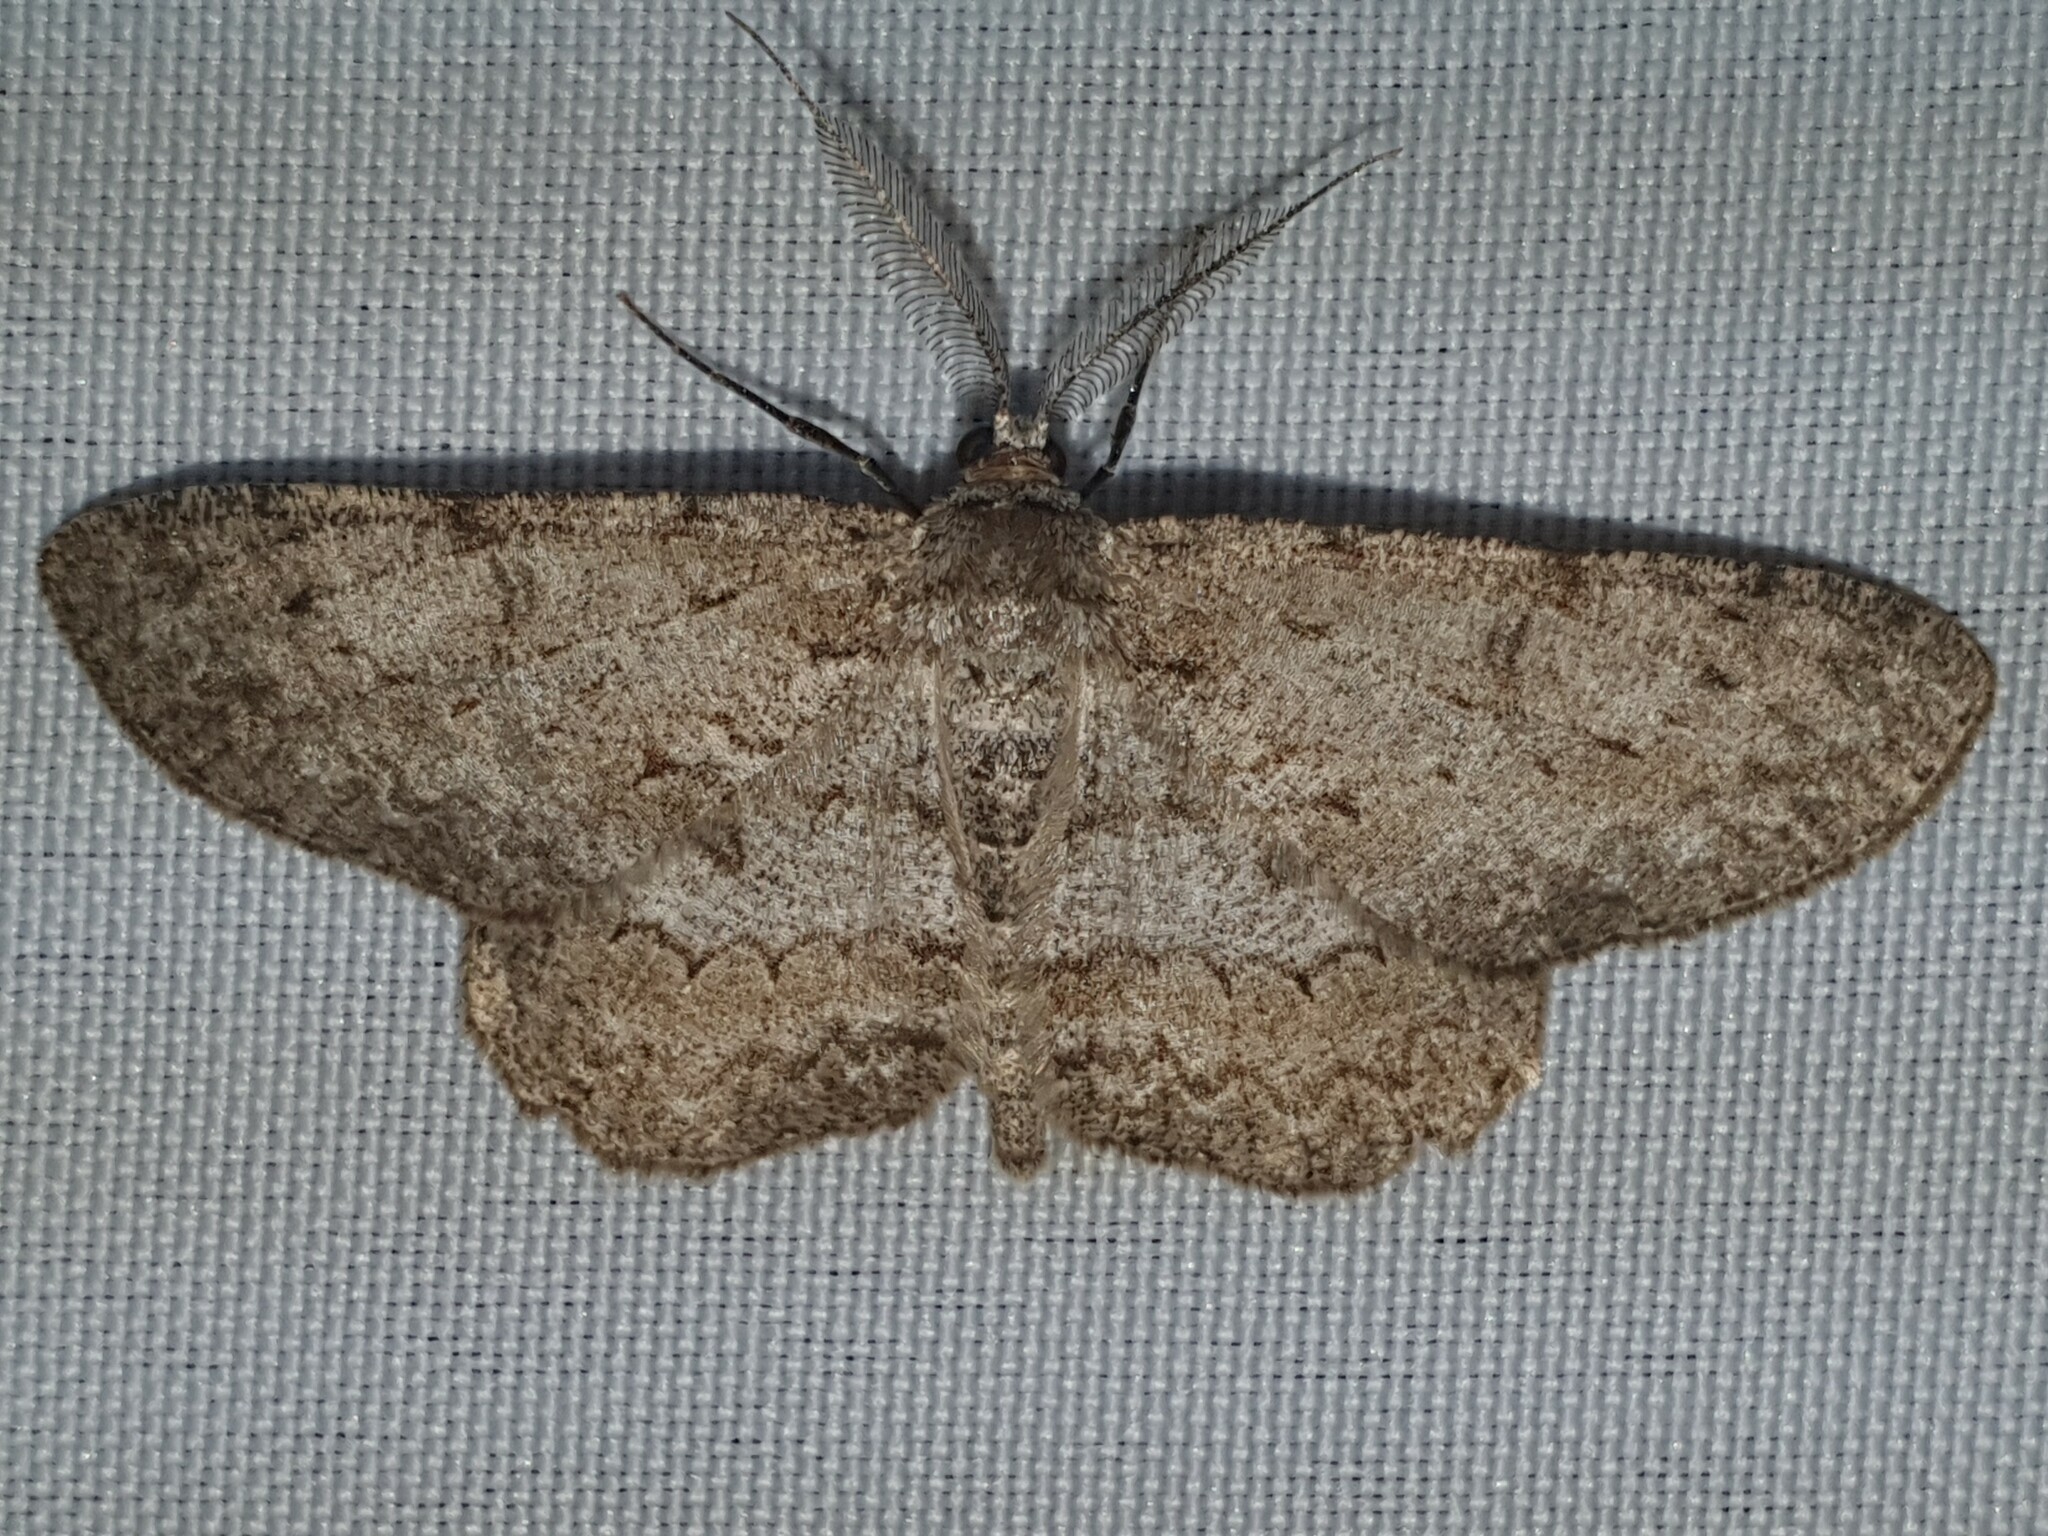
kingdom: Animalia
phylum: Arthropoda
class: Insecta
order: Lepidoptera
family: Geometridae
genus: Hypomecis
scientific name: Hypomecis punctinalis
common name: Pale oak beauty
